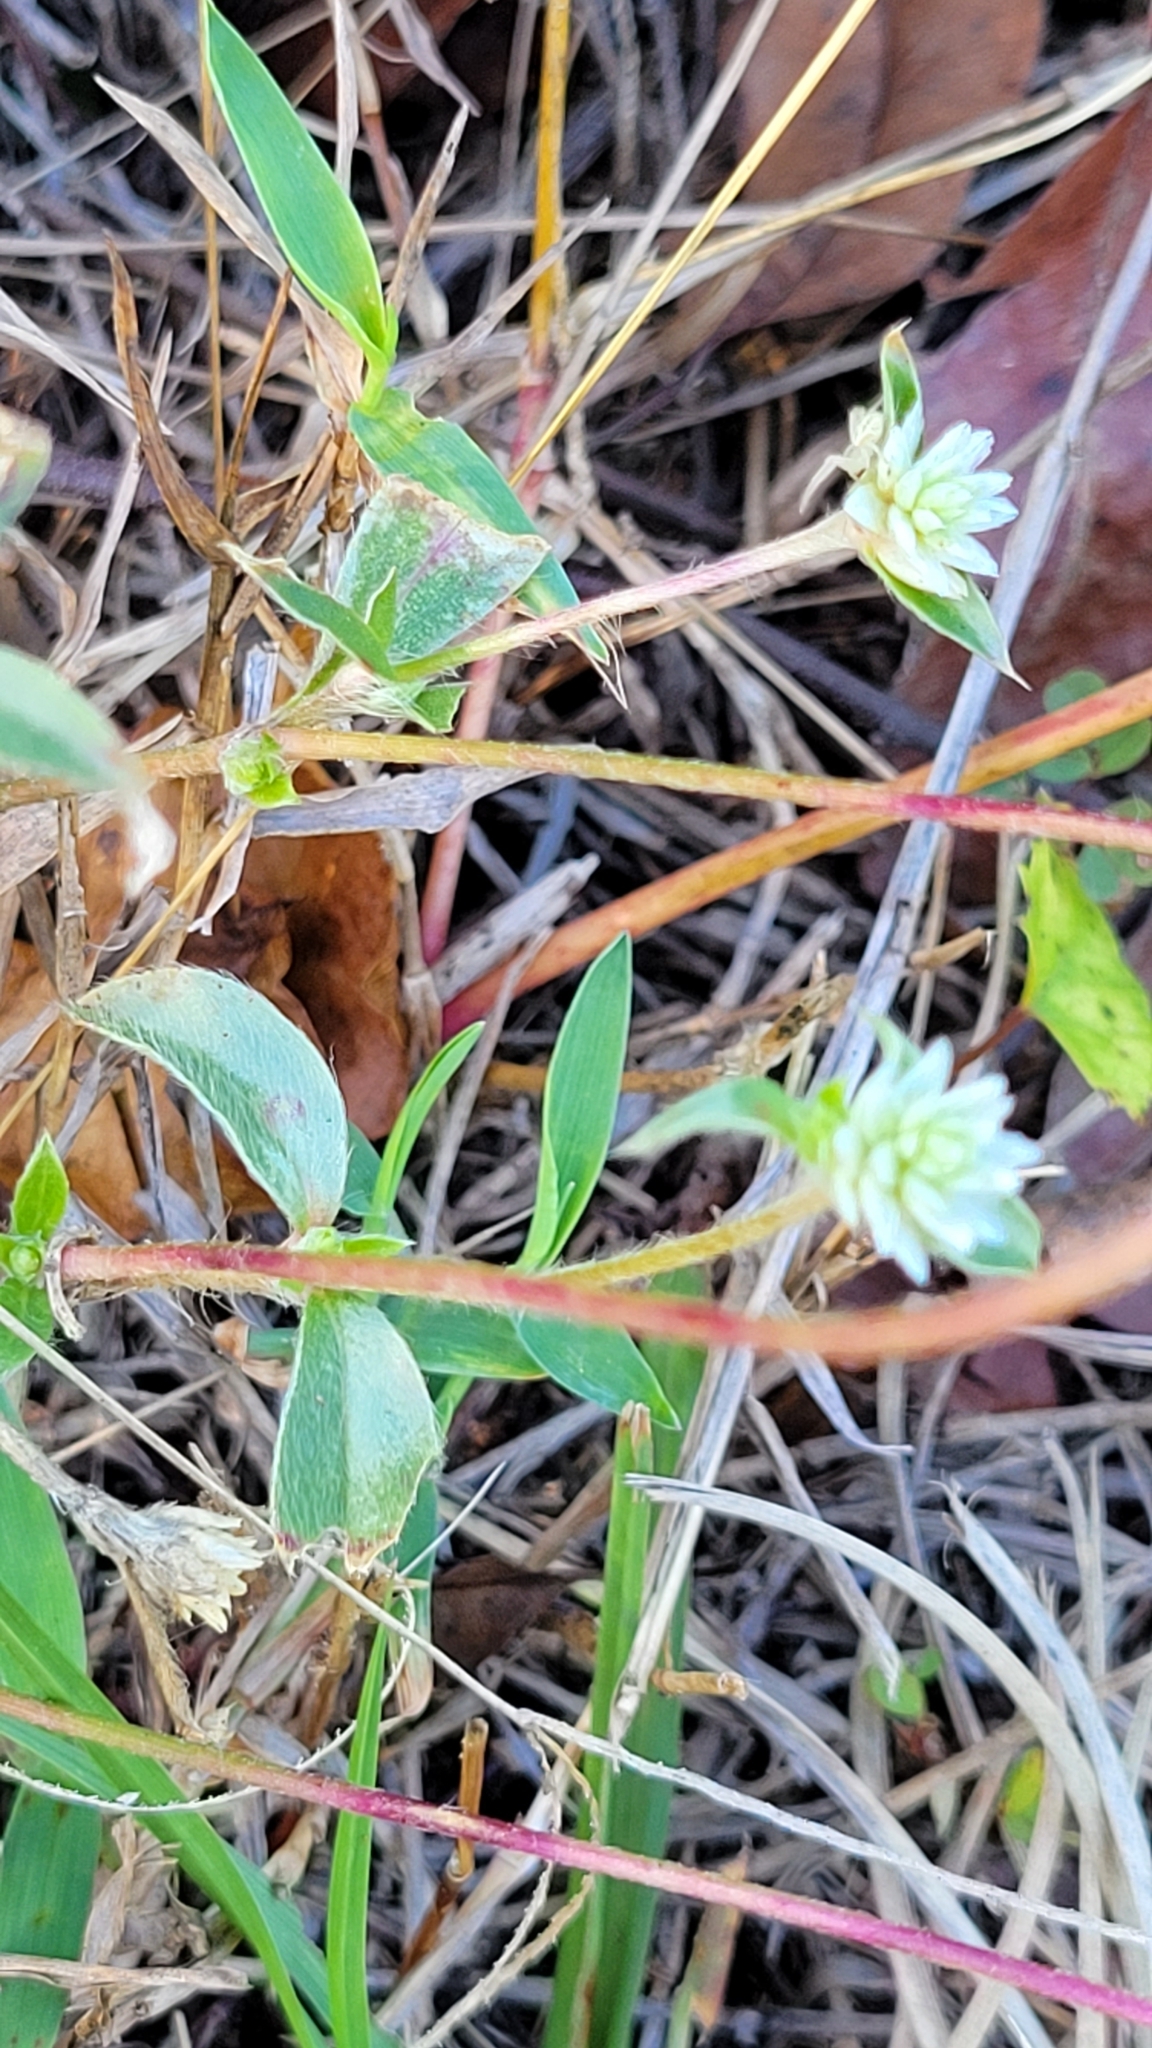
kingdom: Plantae
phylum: Tracheophyta
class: Magnoliopsida
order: Caryophyllales
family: Amaranthaceae
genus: Gomphrena
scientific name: Gomphrena serrata
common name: Arrasa con todo
